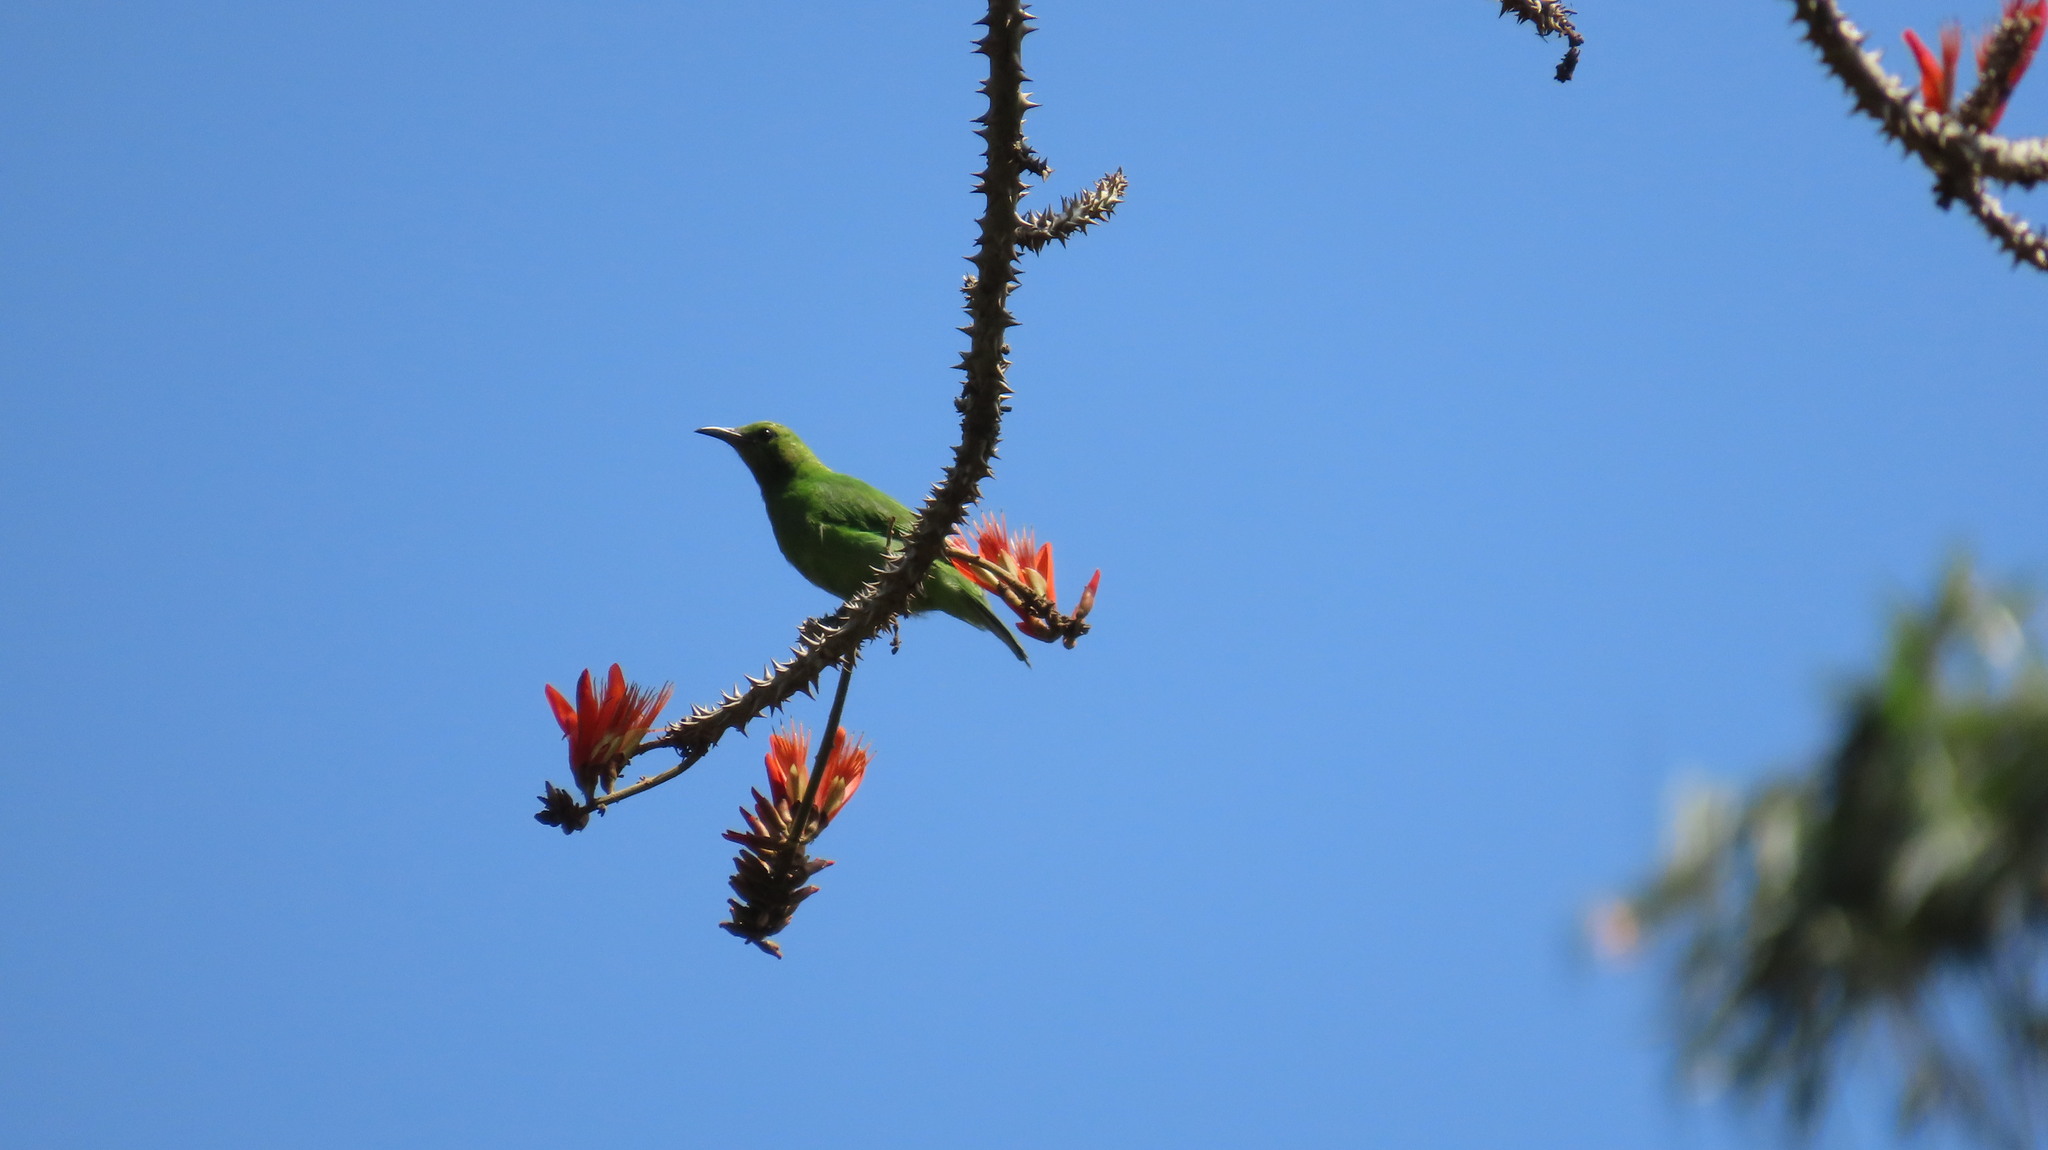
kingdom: Animalia
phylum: Chordata
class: Aves
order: Passeriformes
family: Chloropseidae
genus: Chloropsis
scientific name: Chloropsis aurifrons
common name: Golden-fronted leafbird
